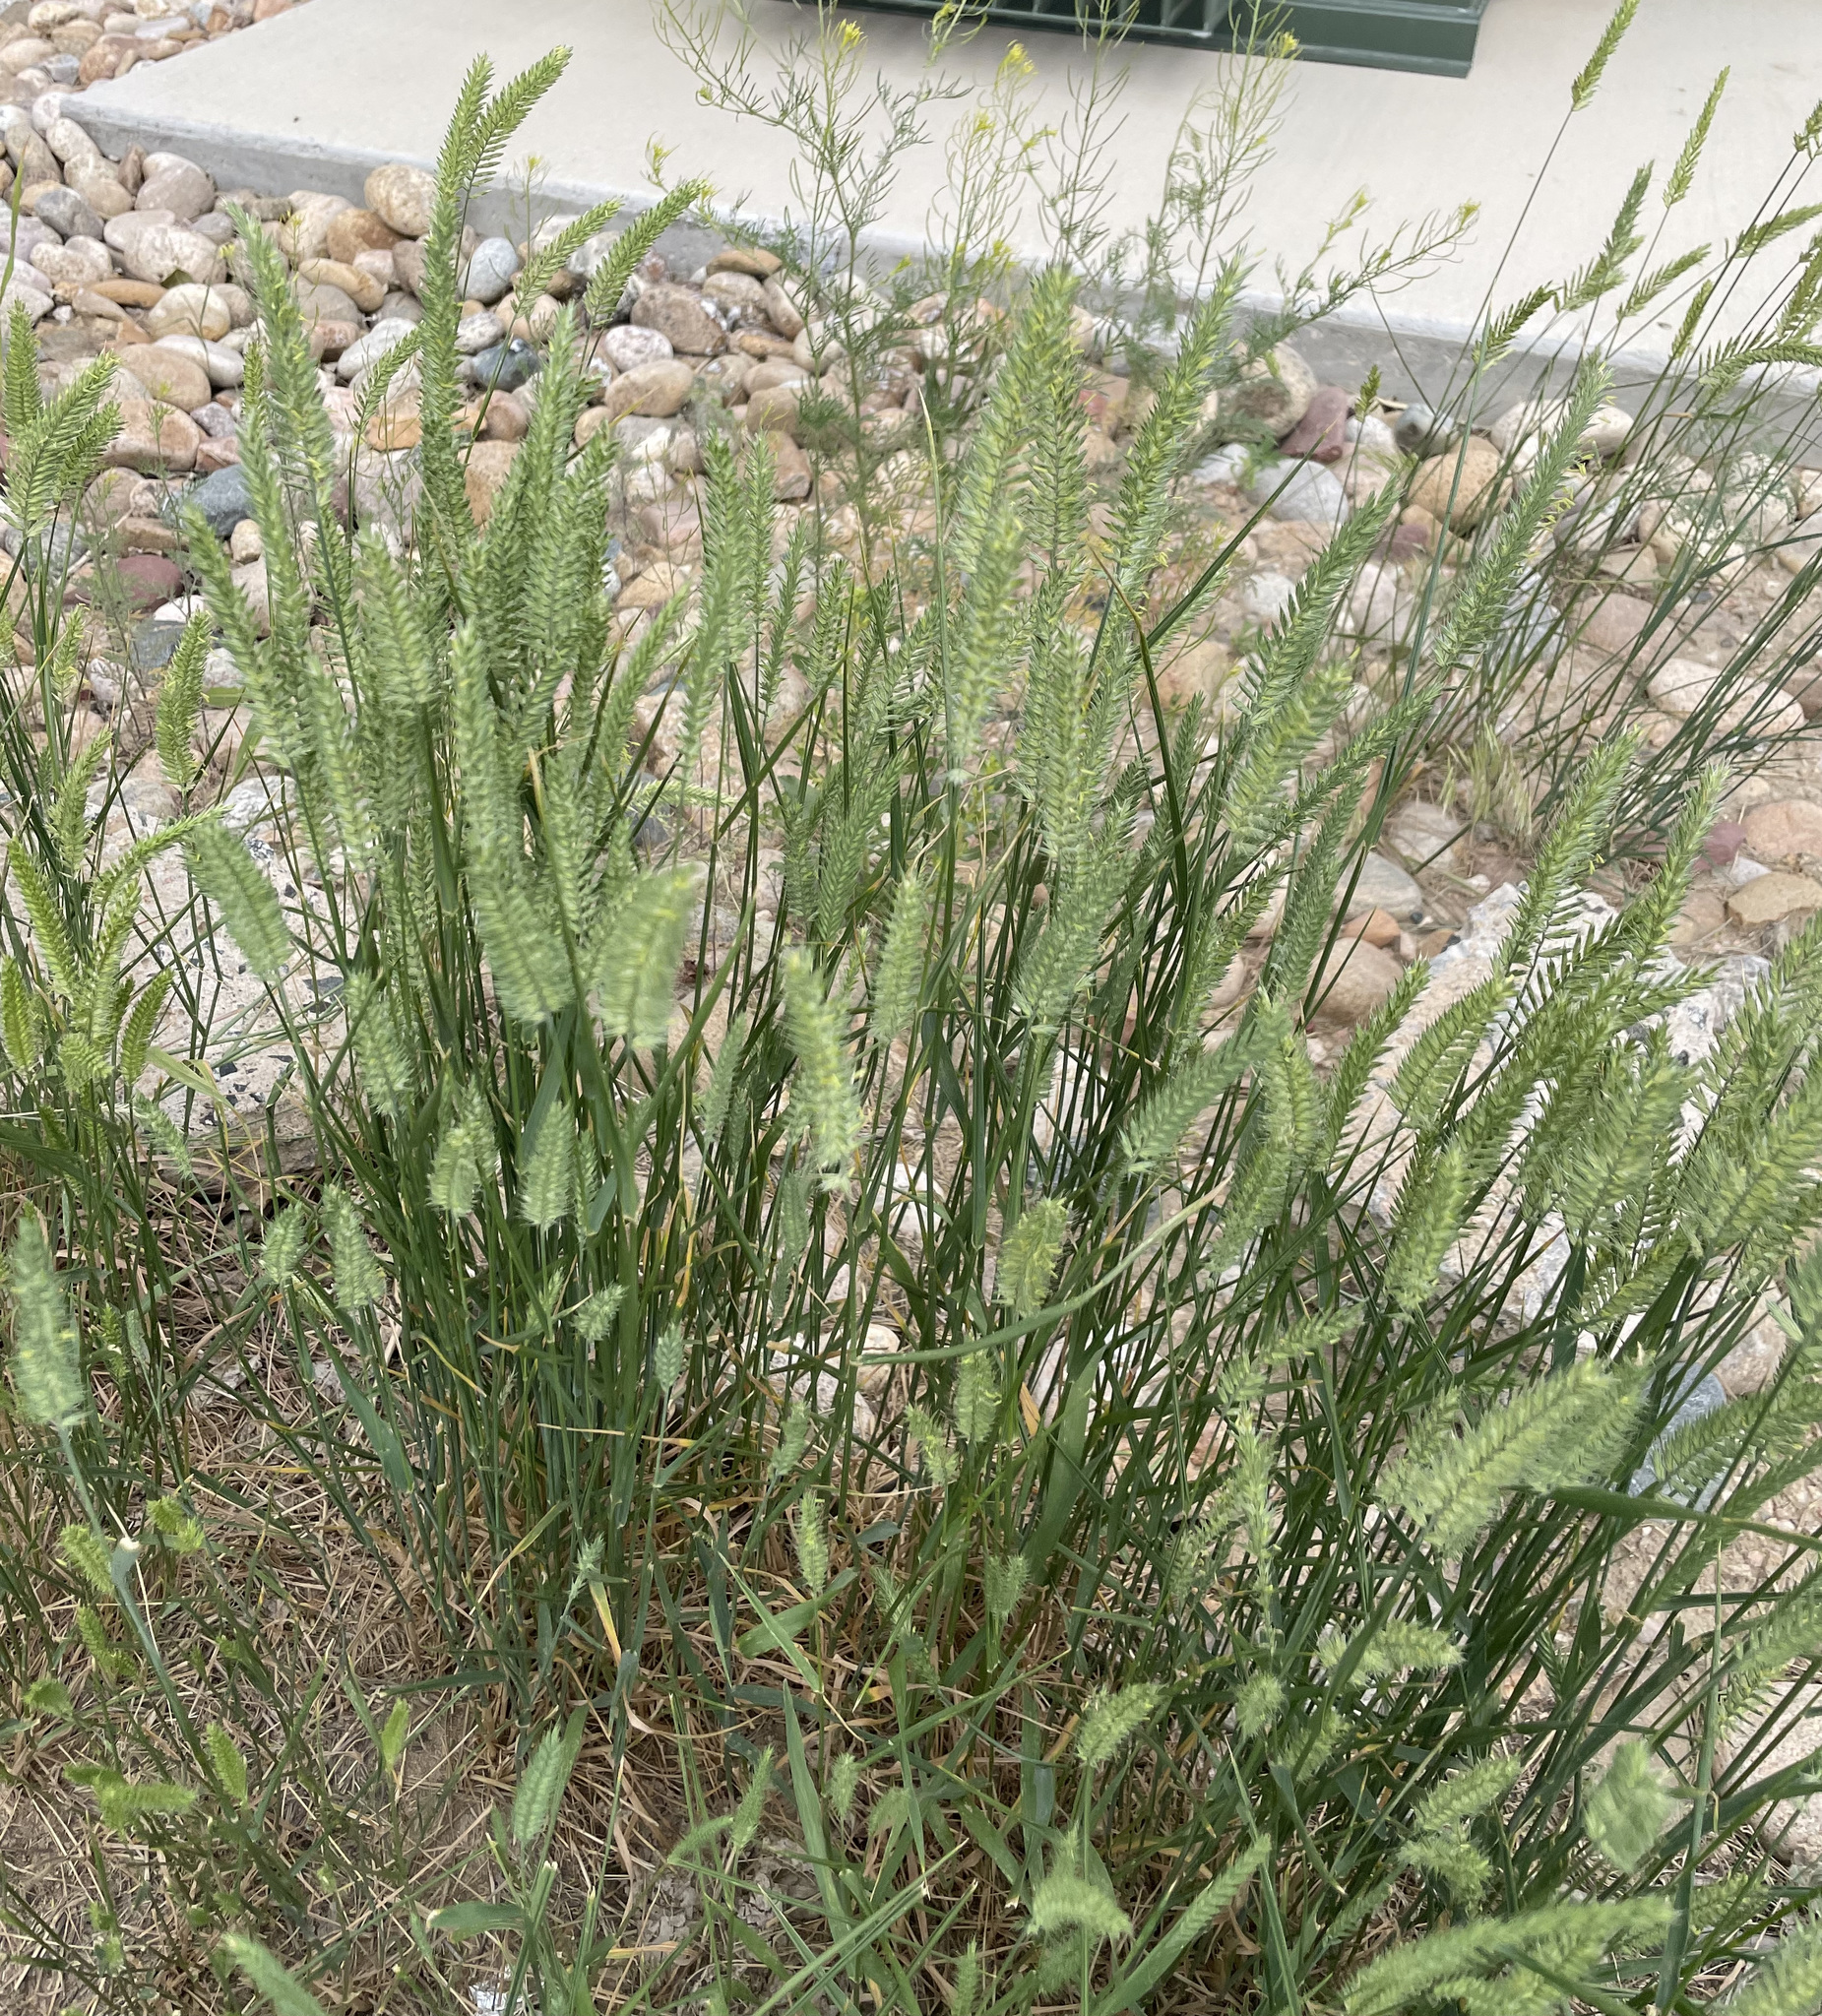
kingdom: Plantae
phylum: Tracheophyta
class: Liliopsida
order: Poales
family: Poaceae
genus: Agropyron
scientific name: Agropyron cristatum
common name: Crested wheatgrass
